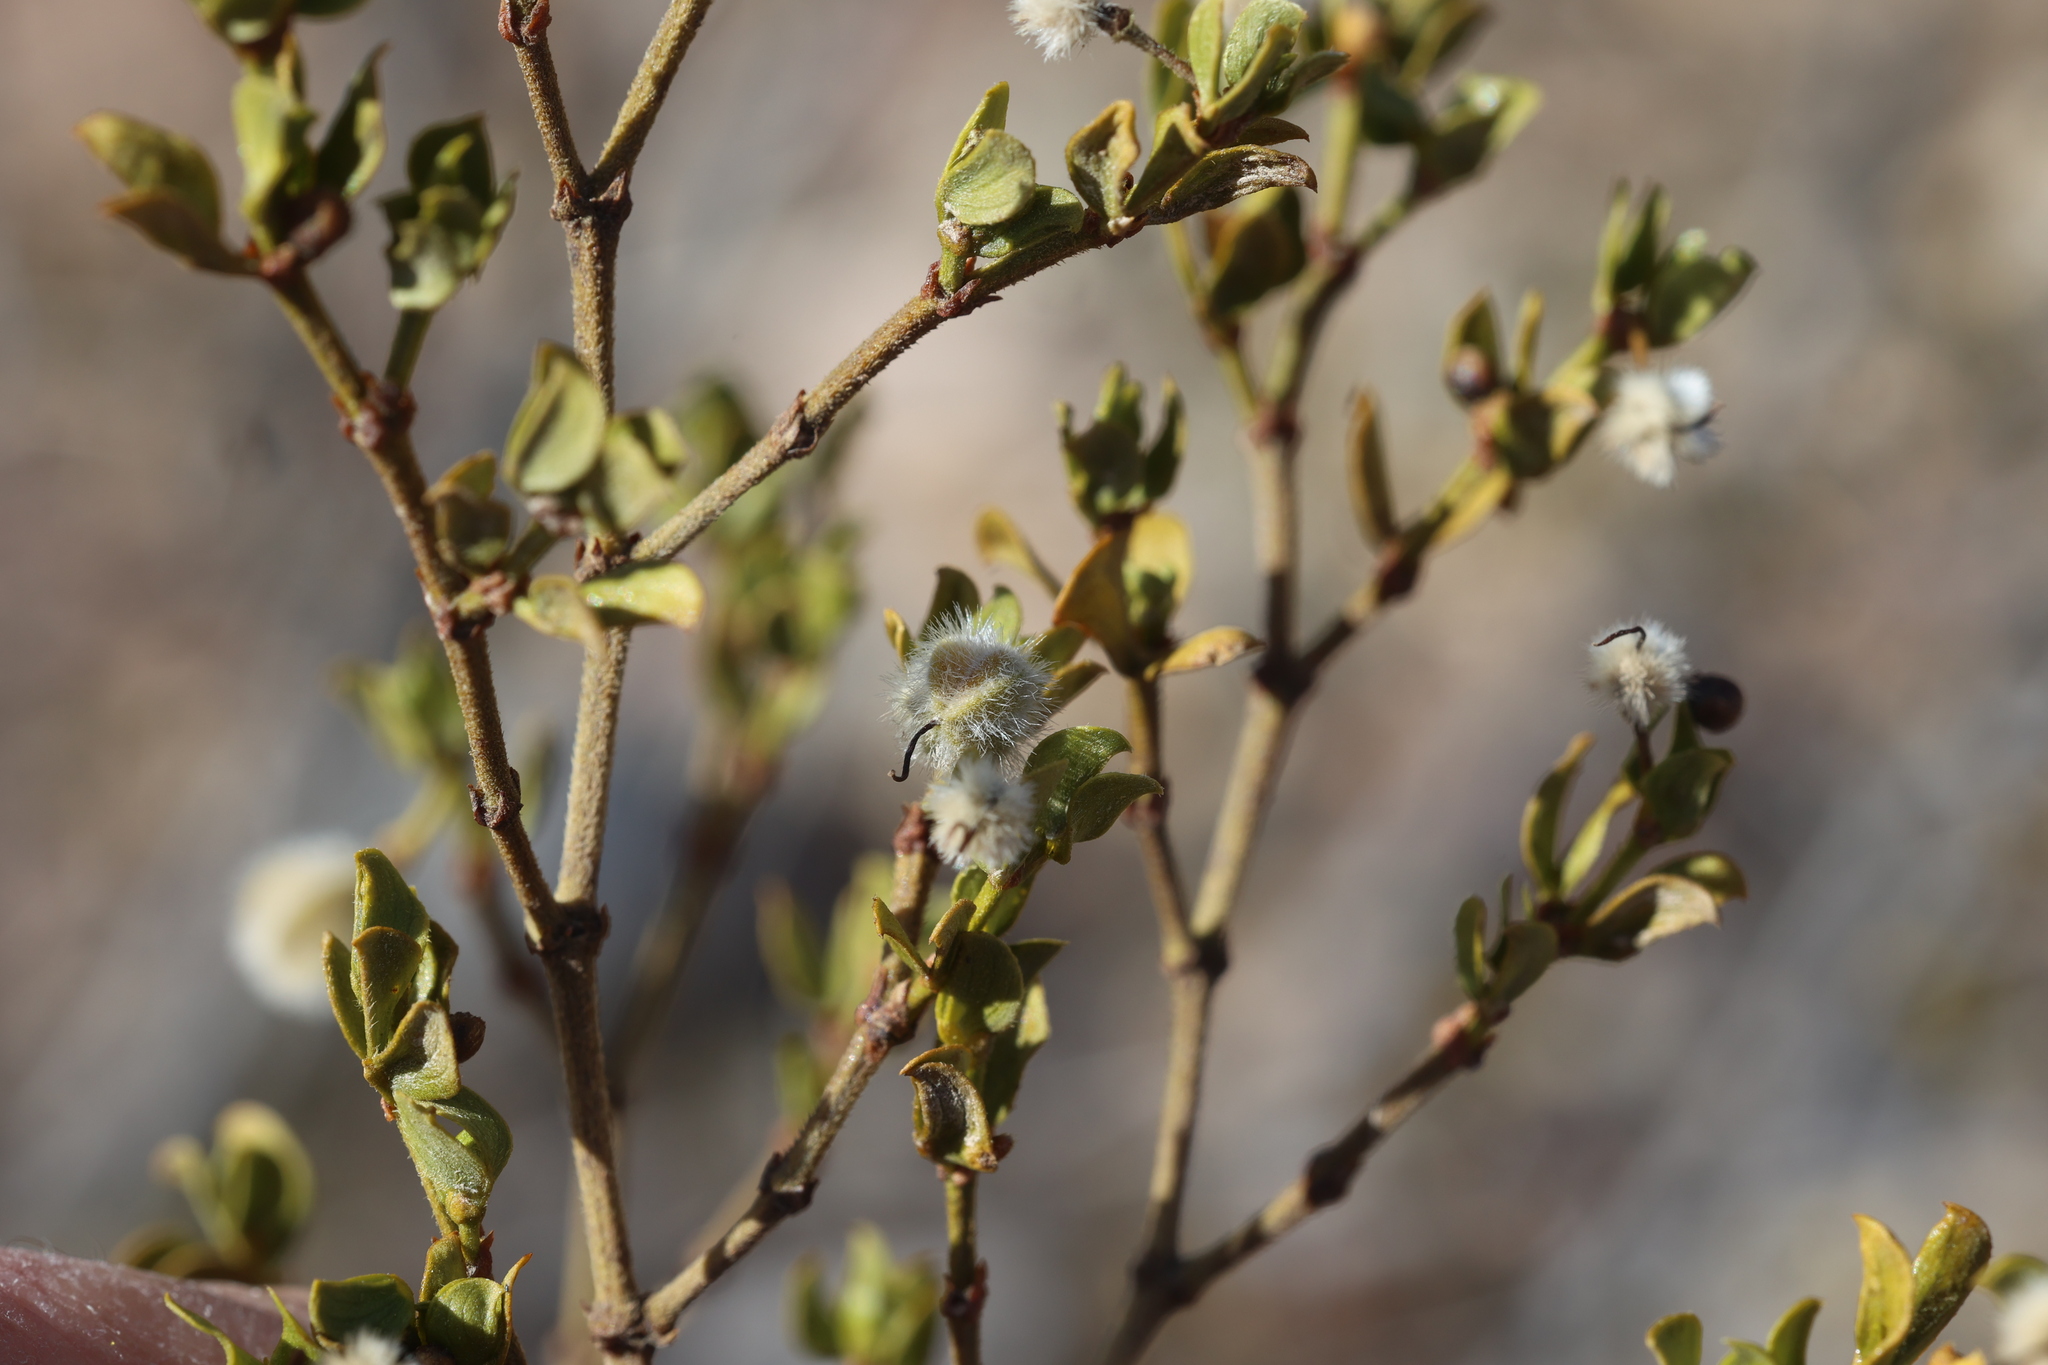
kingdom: Plantae
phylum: Tracheophyta
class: Magnoliopsida
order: Zygophyllales
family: Zygophyllaceae
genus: Larrea
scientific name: Larrea tridentata
